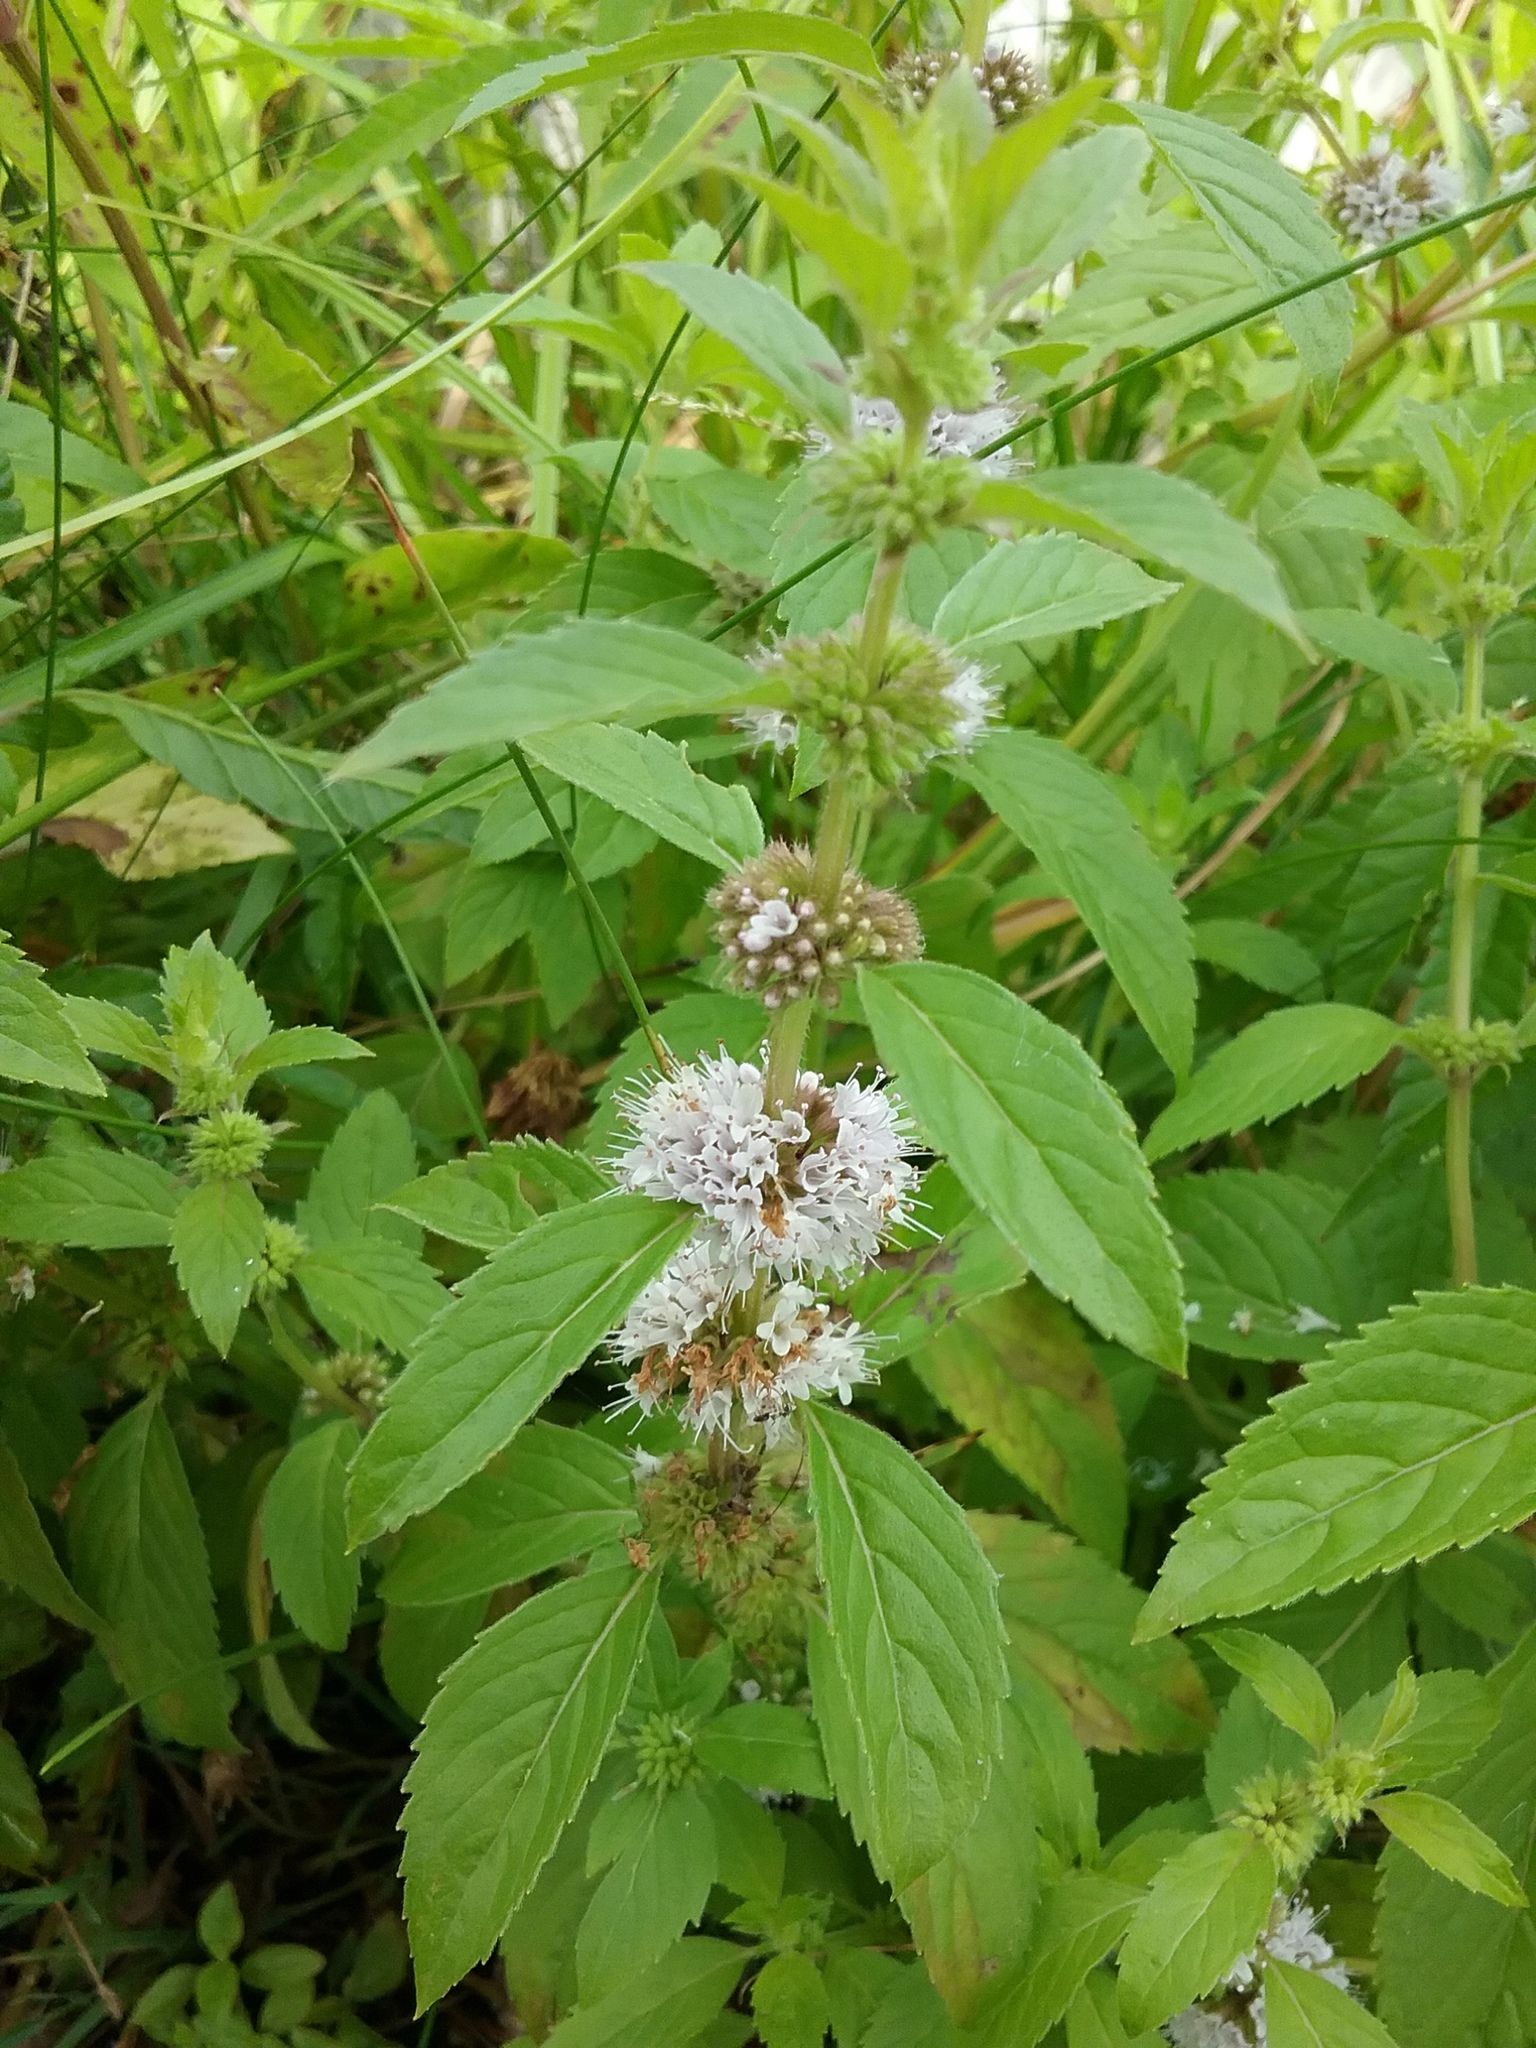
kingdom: Plantae
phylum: Tracheophyta
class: Magnoliopsida
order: Lamiales
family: Lamiaceae
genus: Mentha
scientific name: Mentha canadensis
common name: American corn mint
